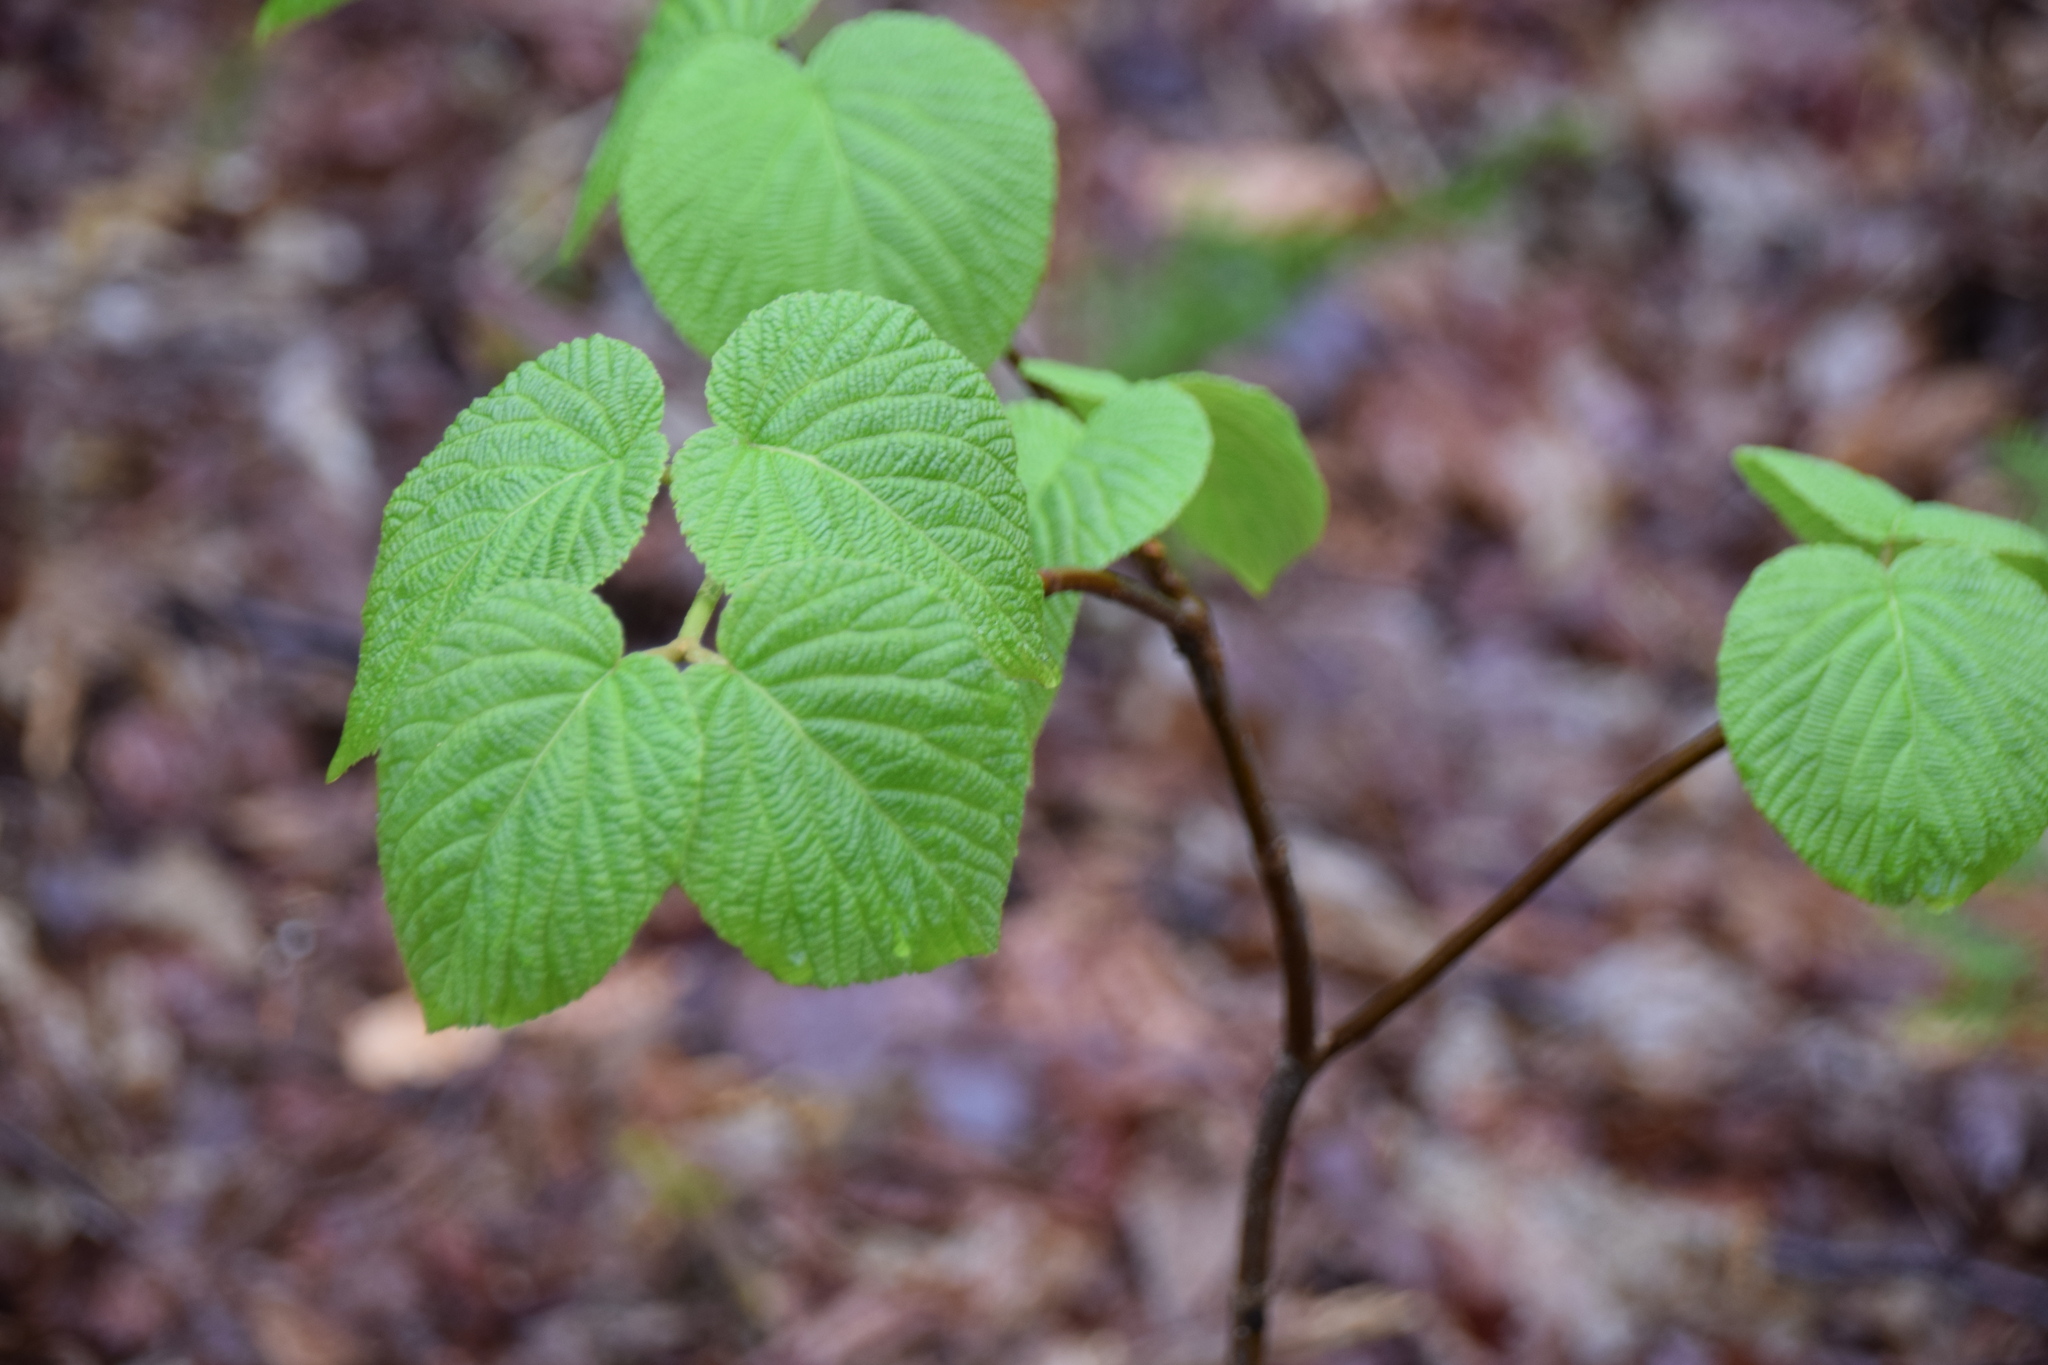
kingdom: Plantae
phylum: Tracheophyta
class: Magnoliopsida
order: Dipsacales
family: Viburnaceae
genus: Viburnum
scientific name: Viburnum lantanoides
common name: Hobblebush
